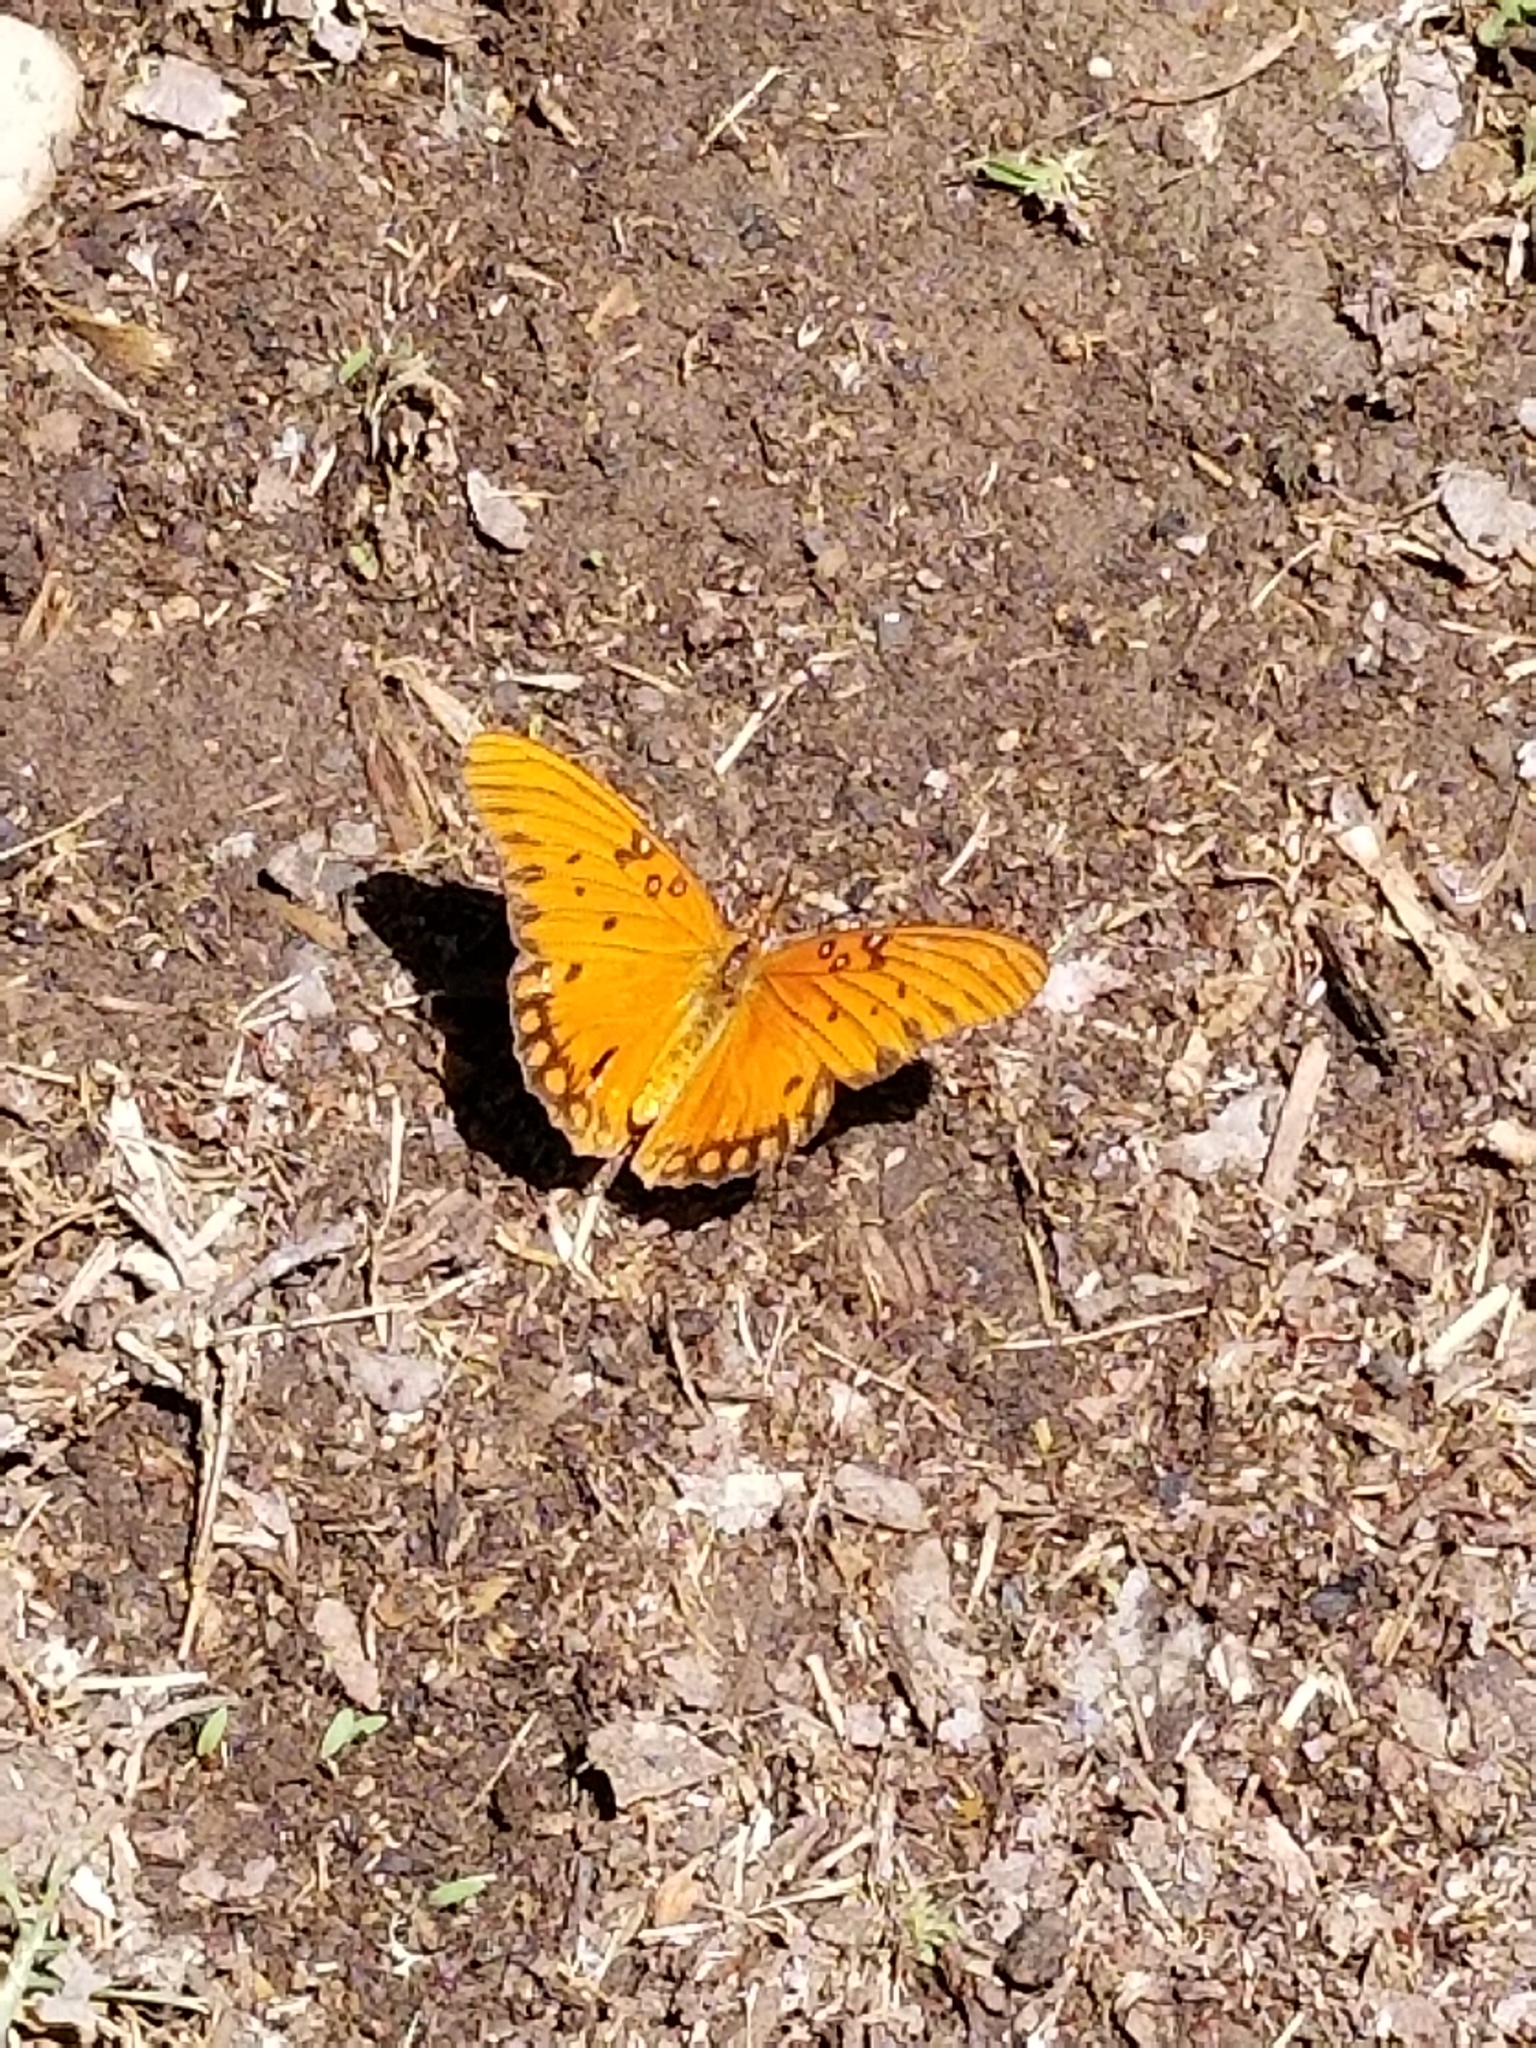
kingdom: Animalia
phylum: Arthropoda
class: Insecta
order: Lepidoptera
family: Nymphalidae
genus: Dione
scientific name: Dione vanillae
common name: Gulf fritillary
